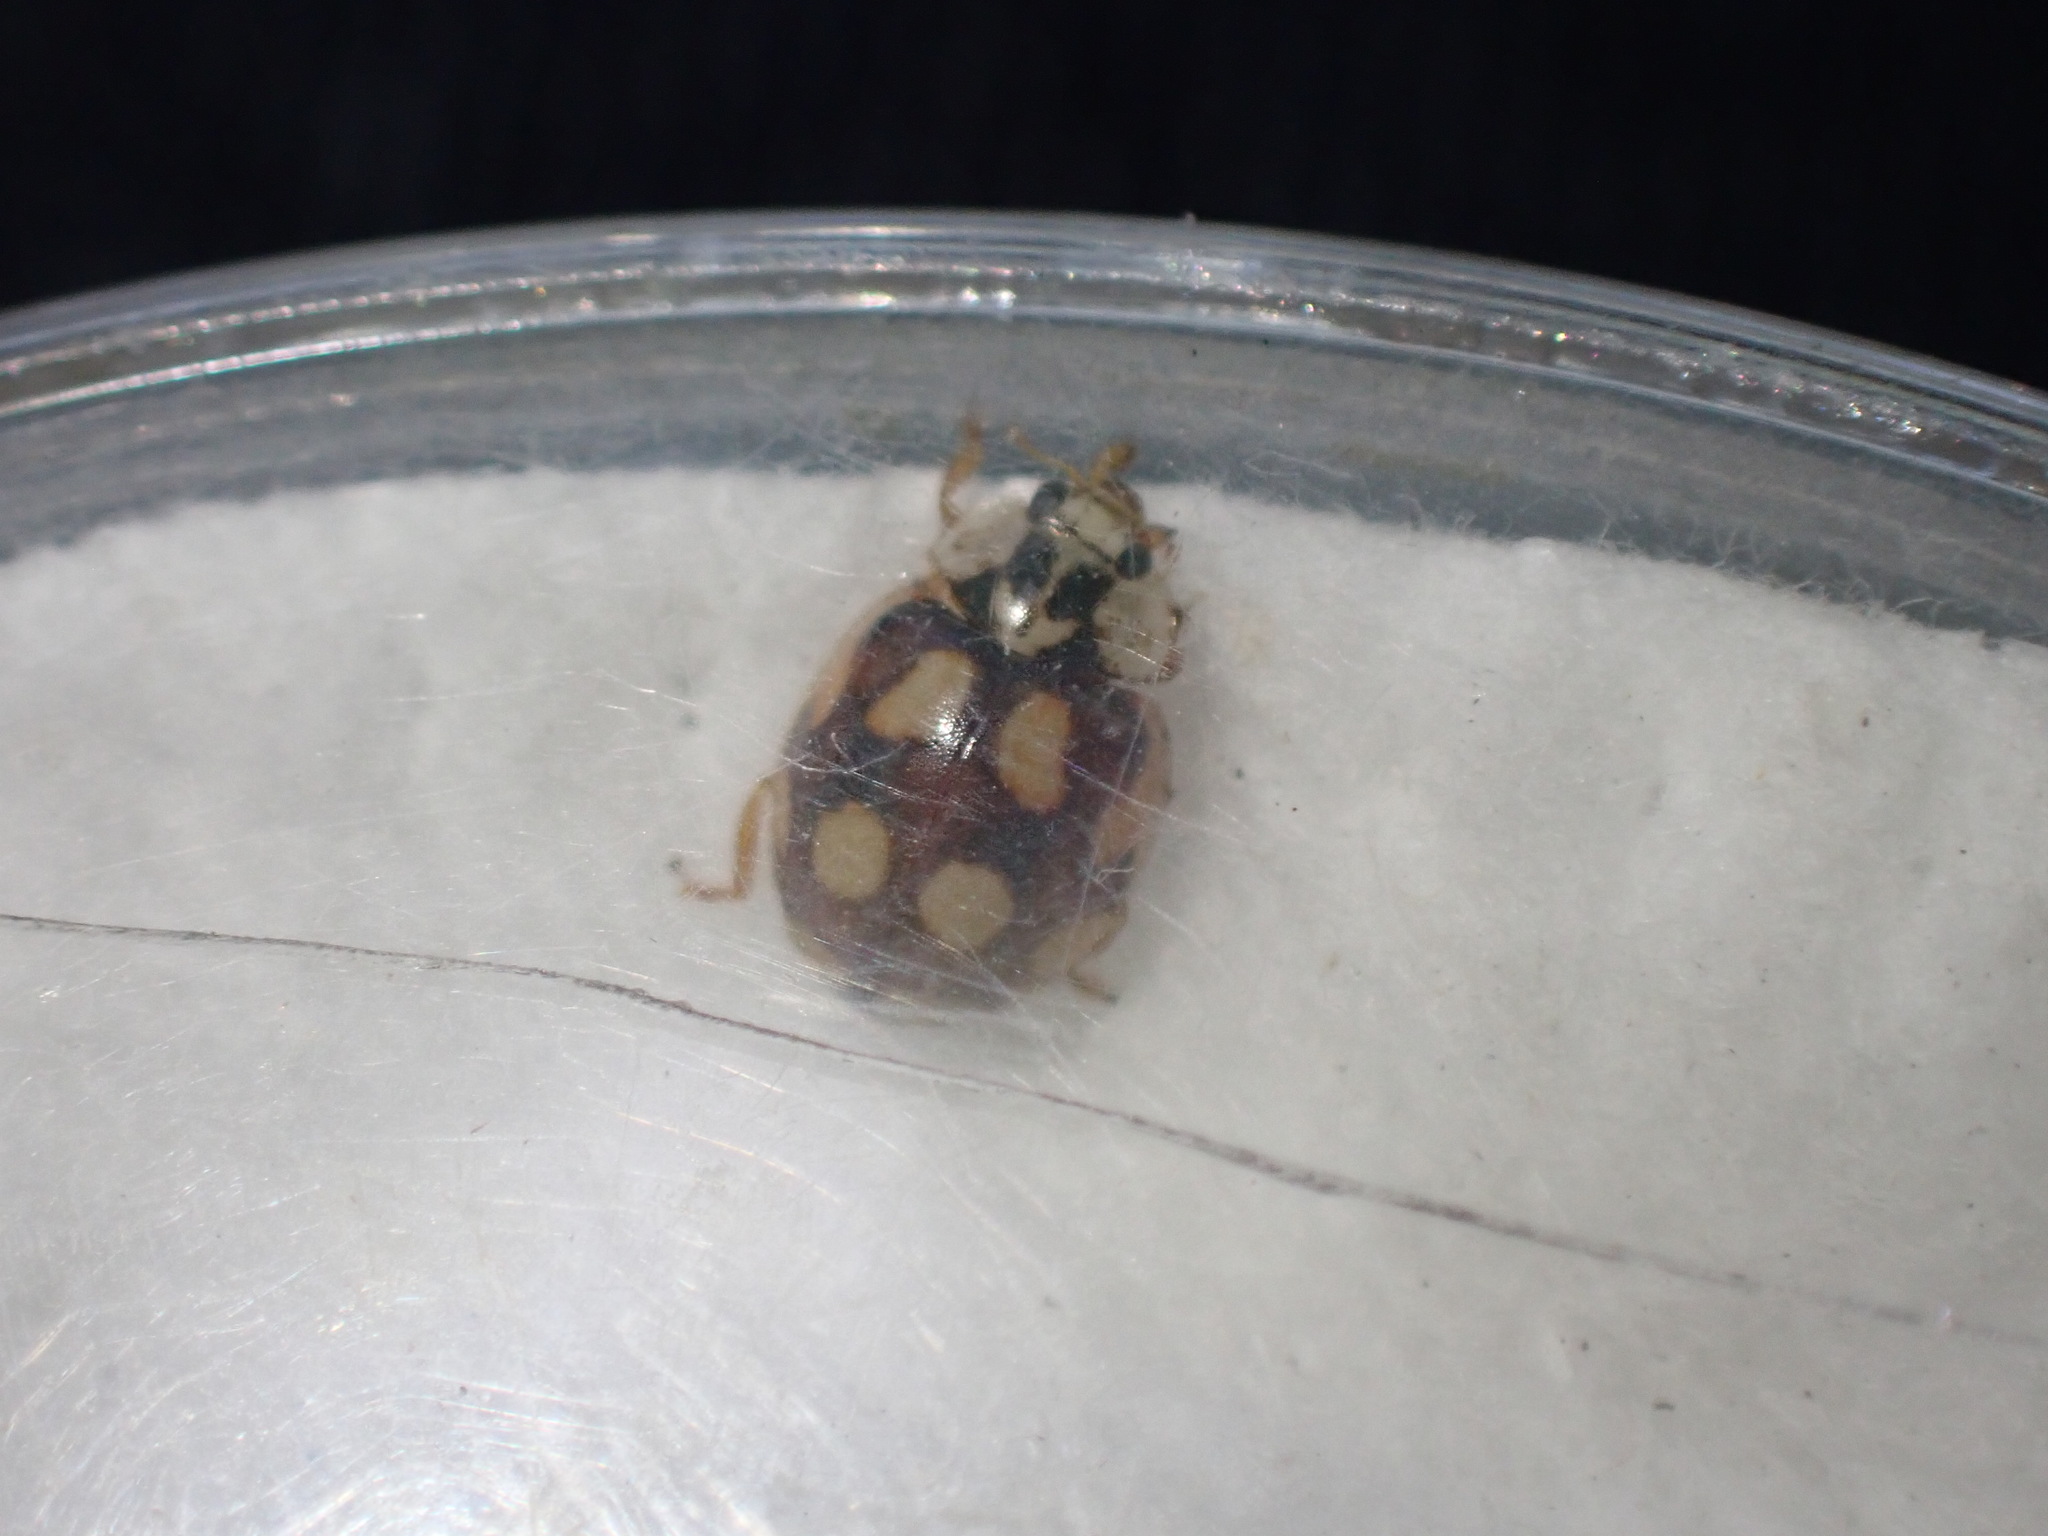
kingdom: Animalia
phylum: Arthropoda
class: Insecta
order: Coleoptera
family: Coccinellidae
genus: Adalia
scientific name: Adalia decempunctata
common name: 10-spot ladybird
